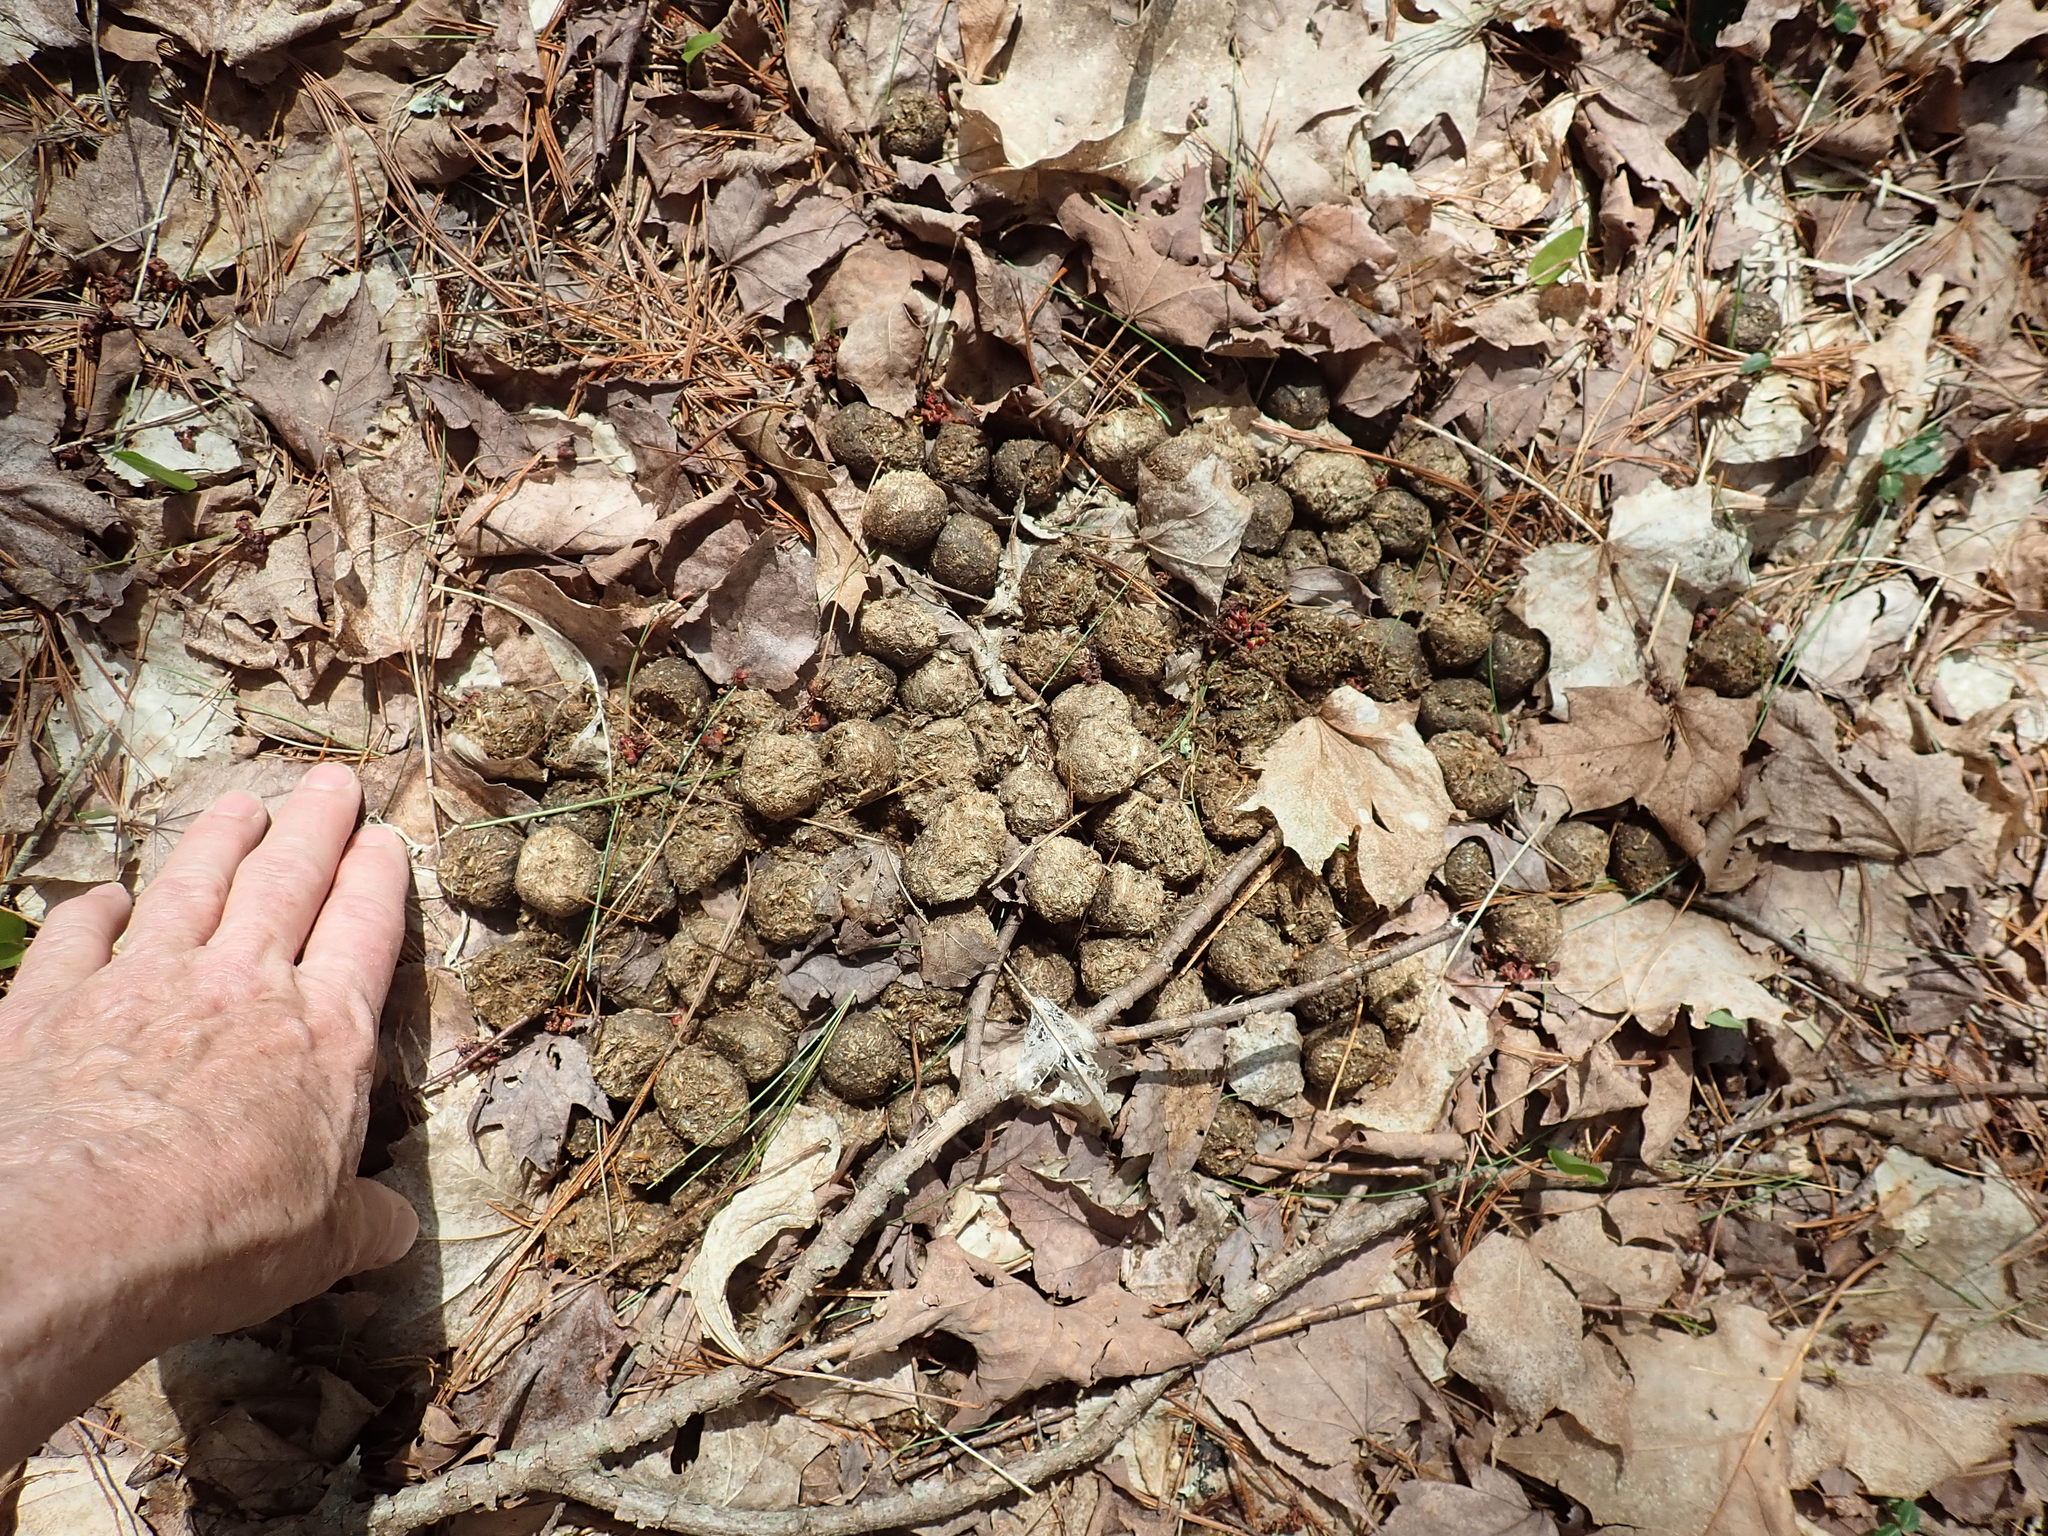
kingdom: Animalia
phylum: Chordata
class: Mammalia
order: Artiodactyla
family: Cervidae
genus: Alces
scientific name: Alces alces
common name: Moose
